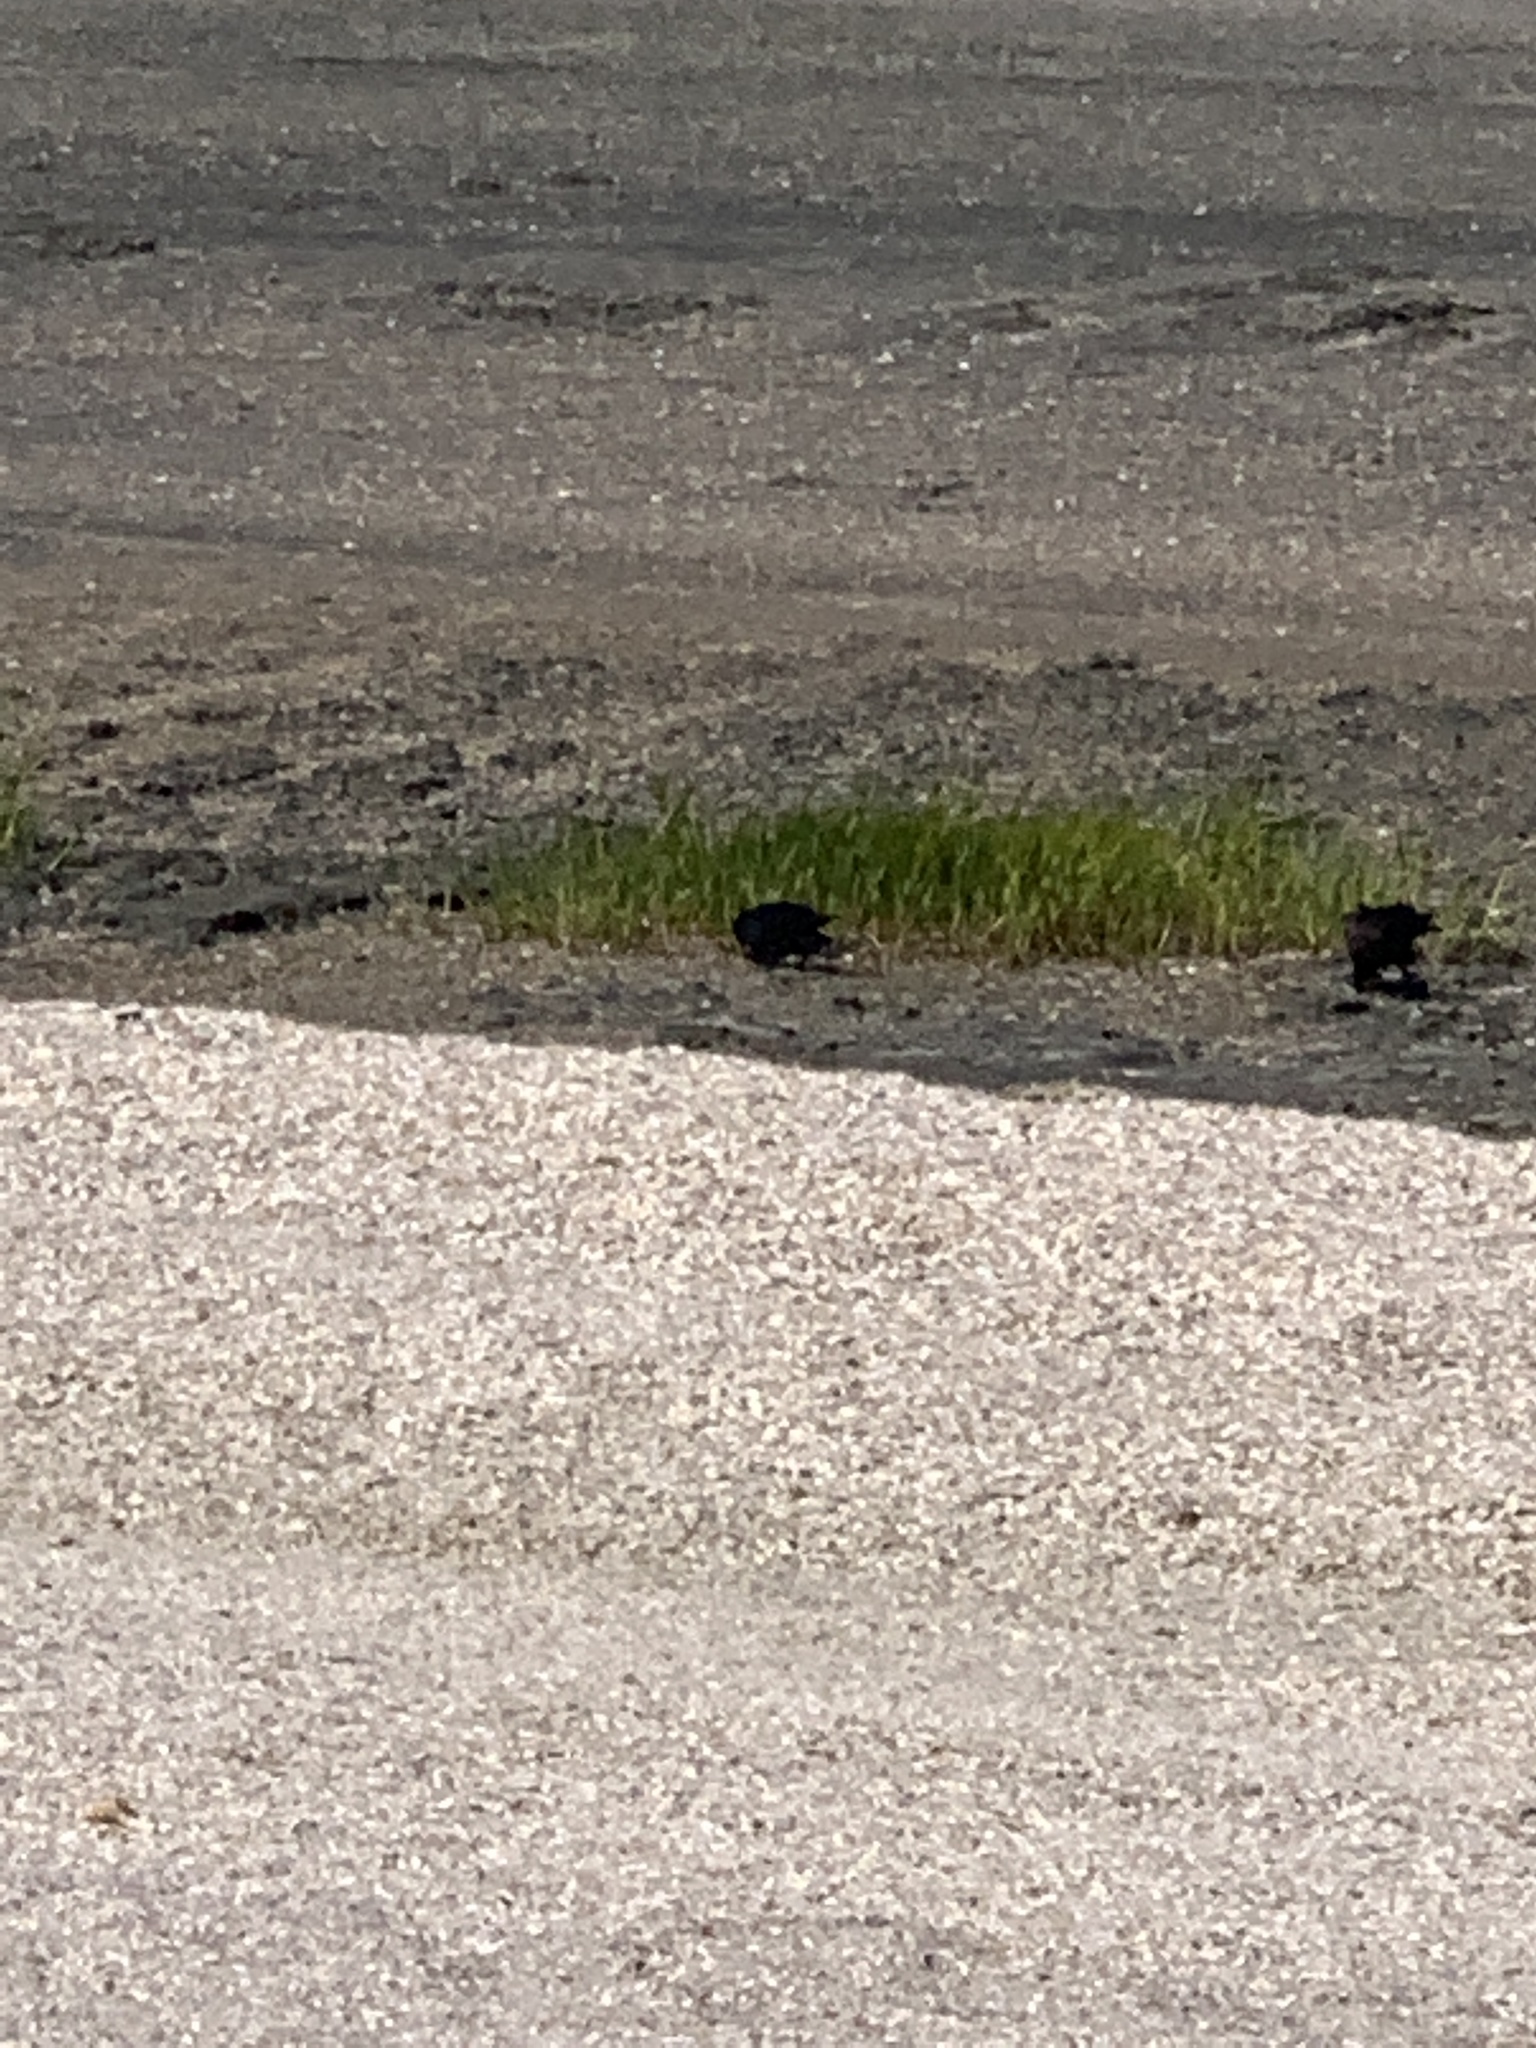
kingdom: Animalia
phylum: Chordata
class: Aves
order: Passeriformes
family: Corvidae
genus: Corvus
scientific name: Corvus brachyrhynchos
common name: American crow
